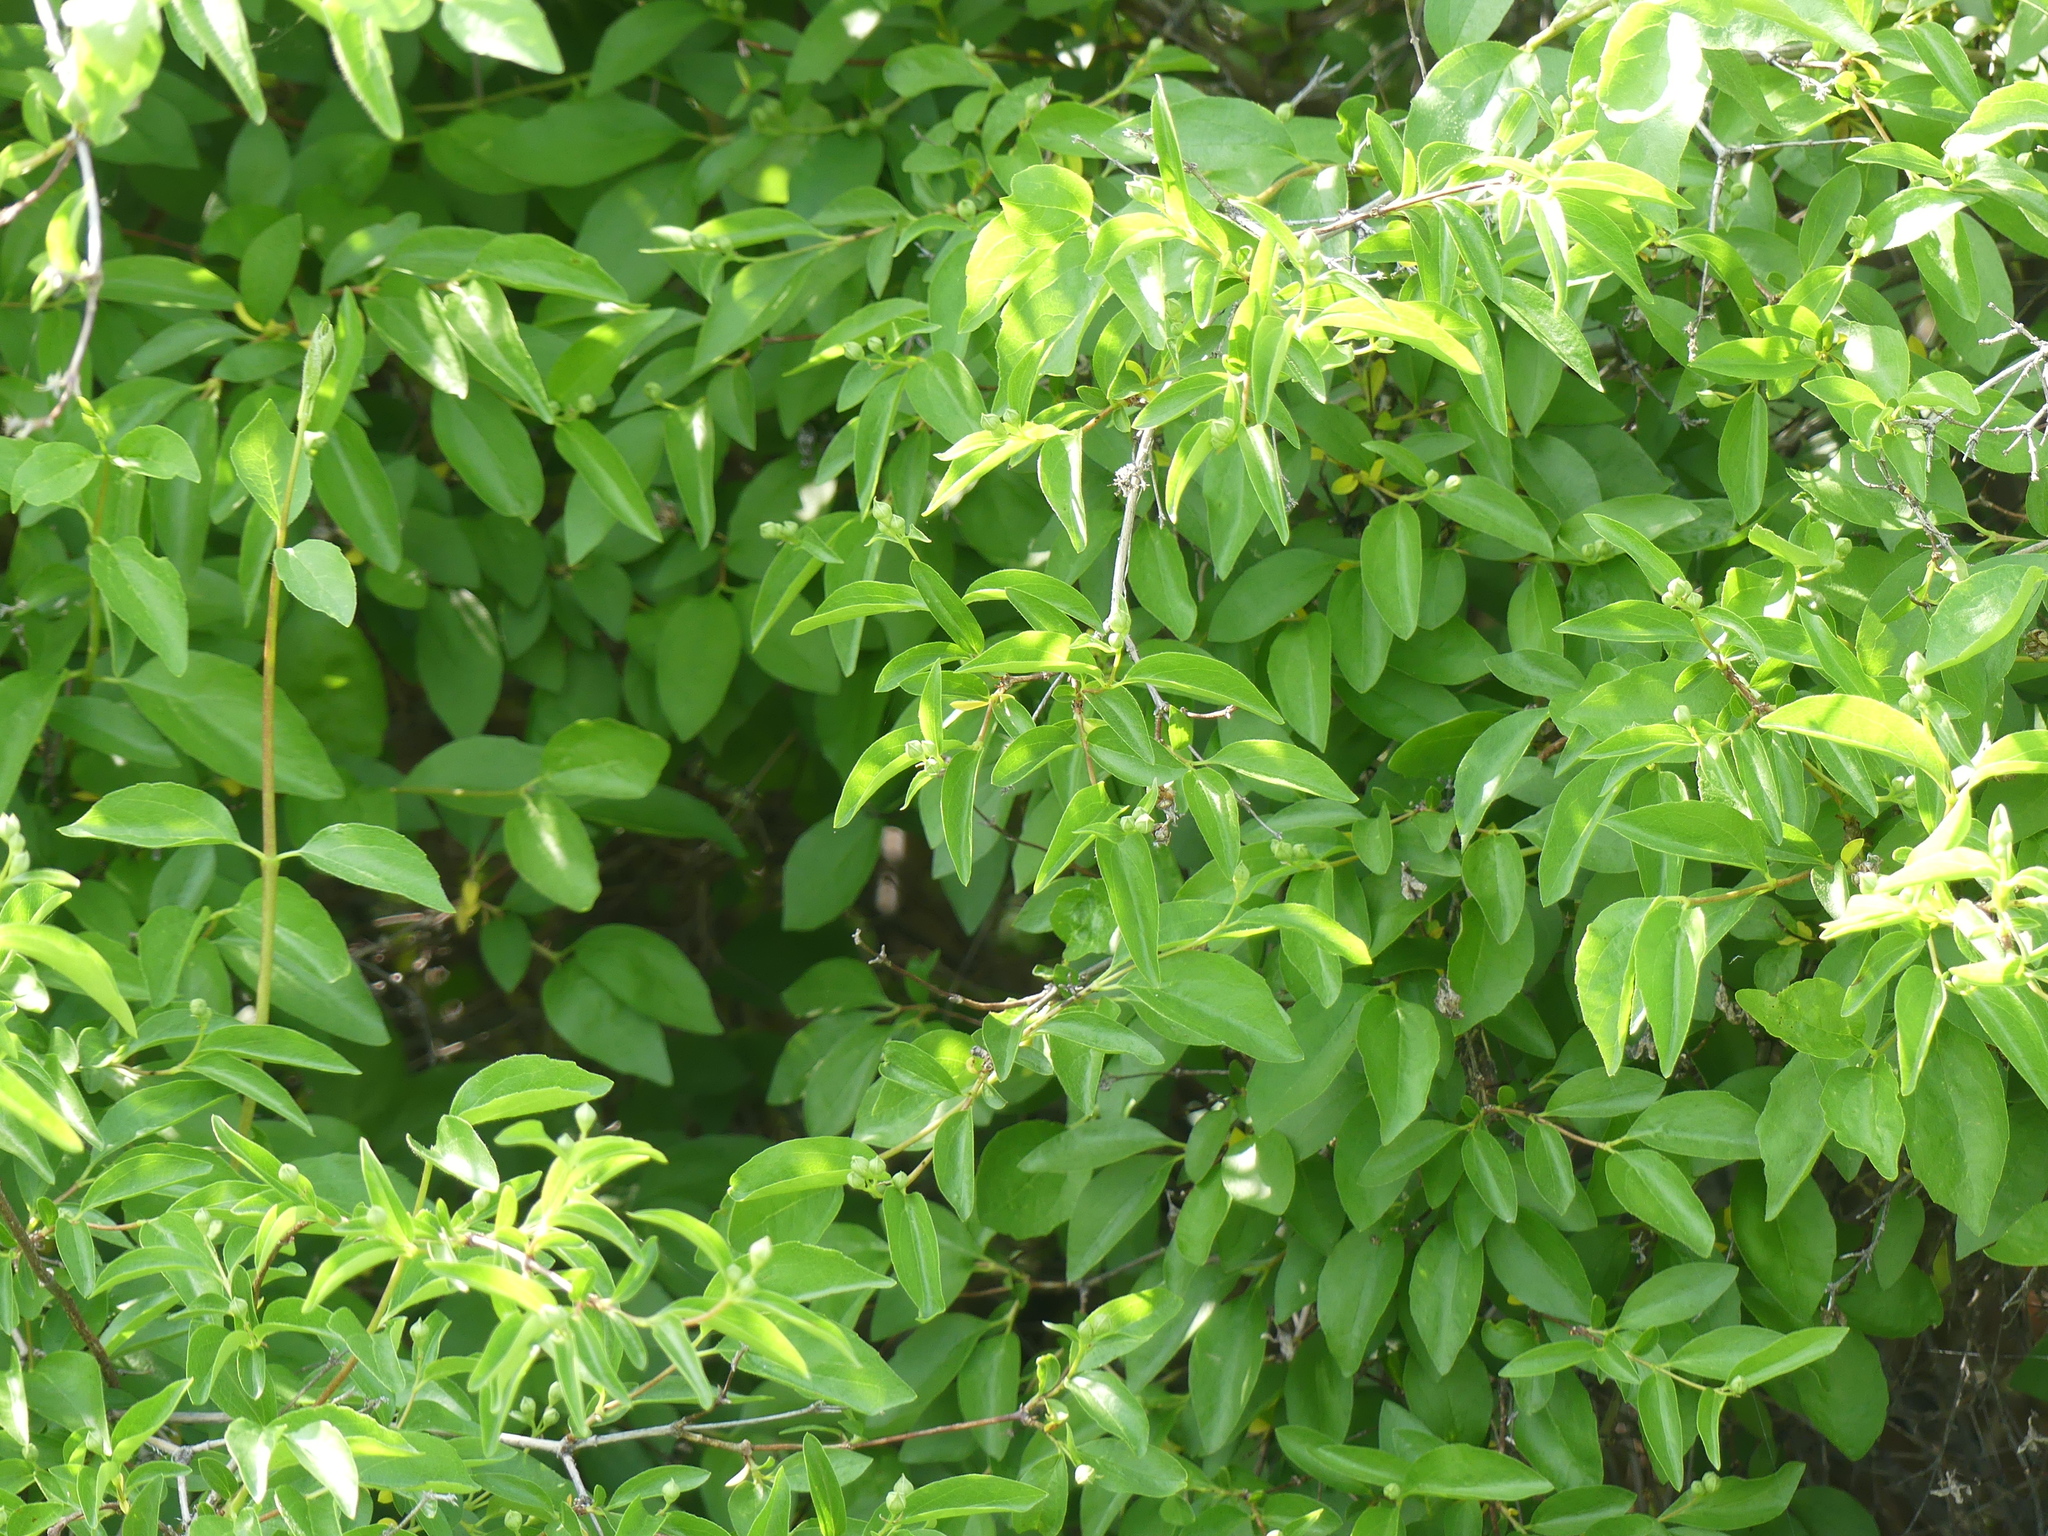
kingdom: Plantae
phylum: Tracheophyta
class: Magnoliopsida
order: Cornales
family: Hydrangeaceae
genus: Philadelphus
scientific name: Philadelphus lewisii
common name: Lewis's mock orange
